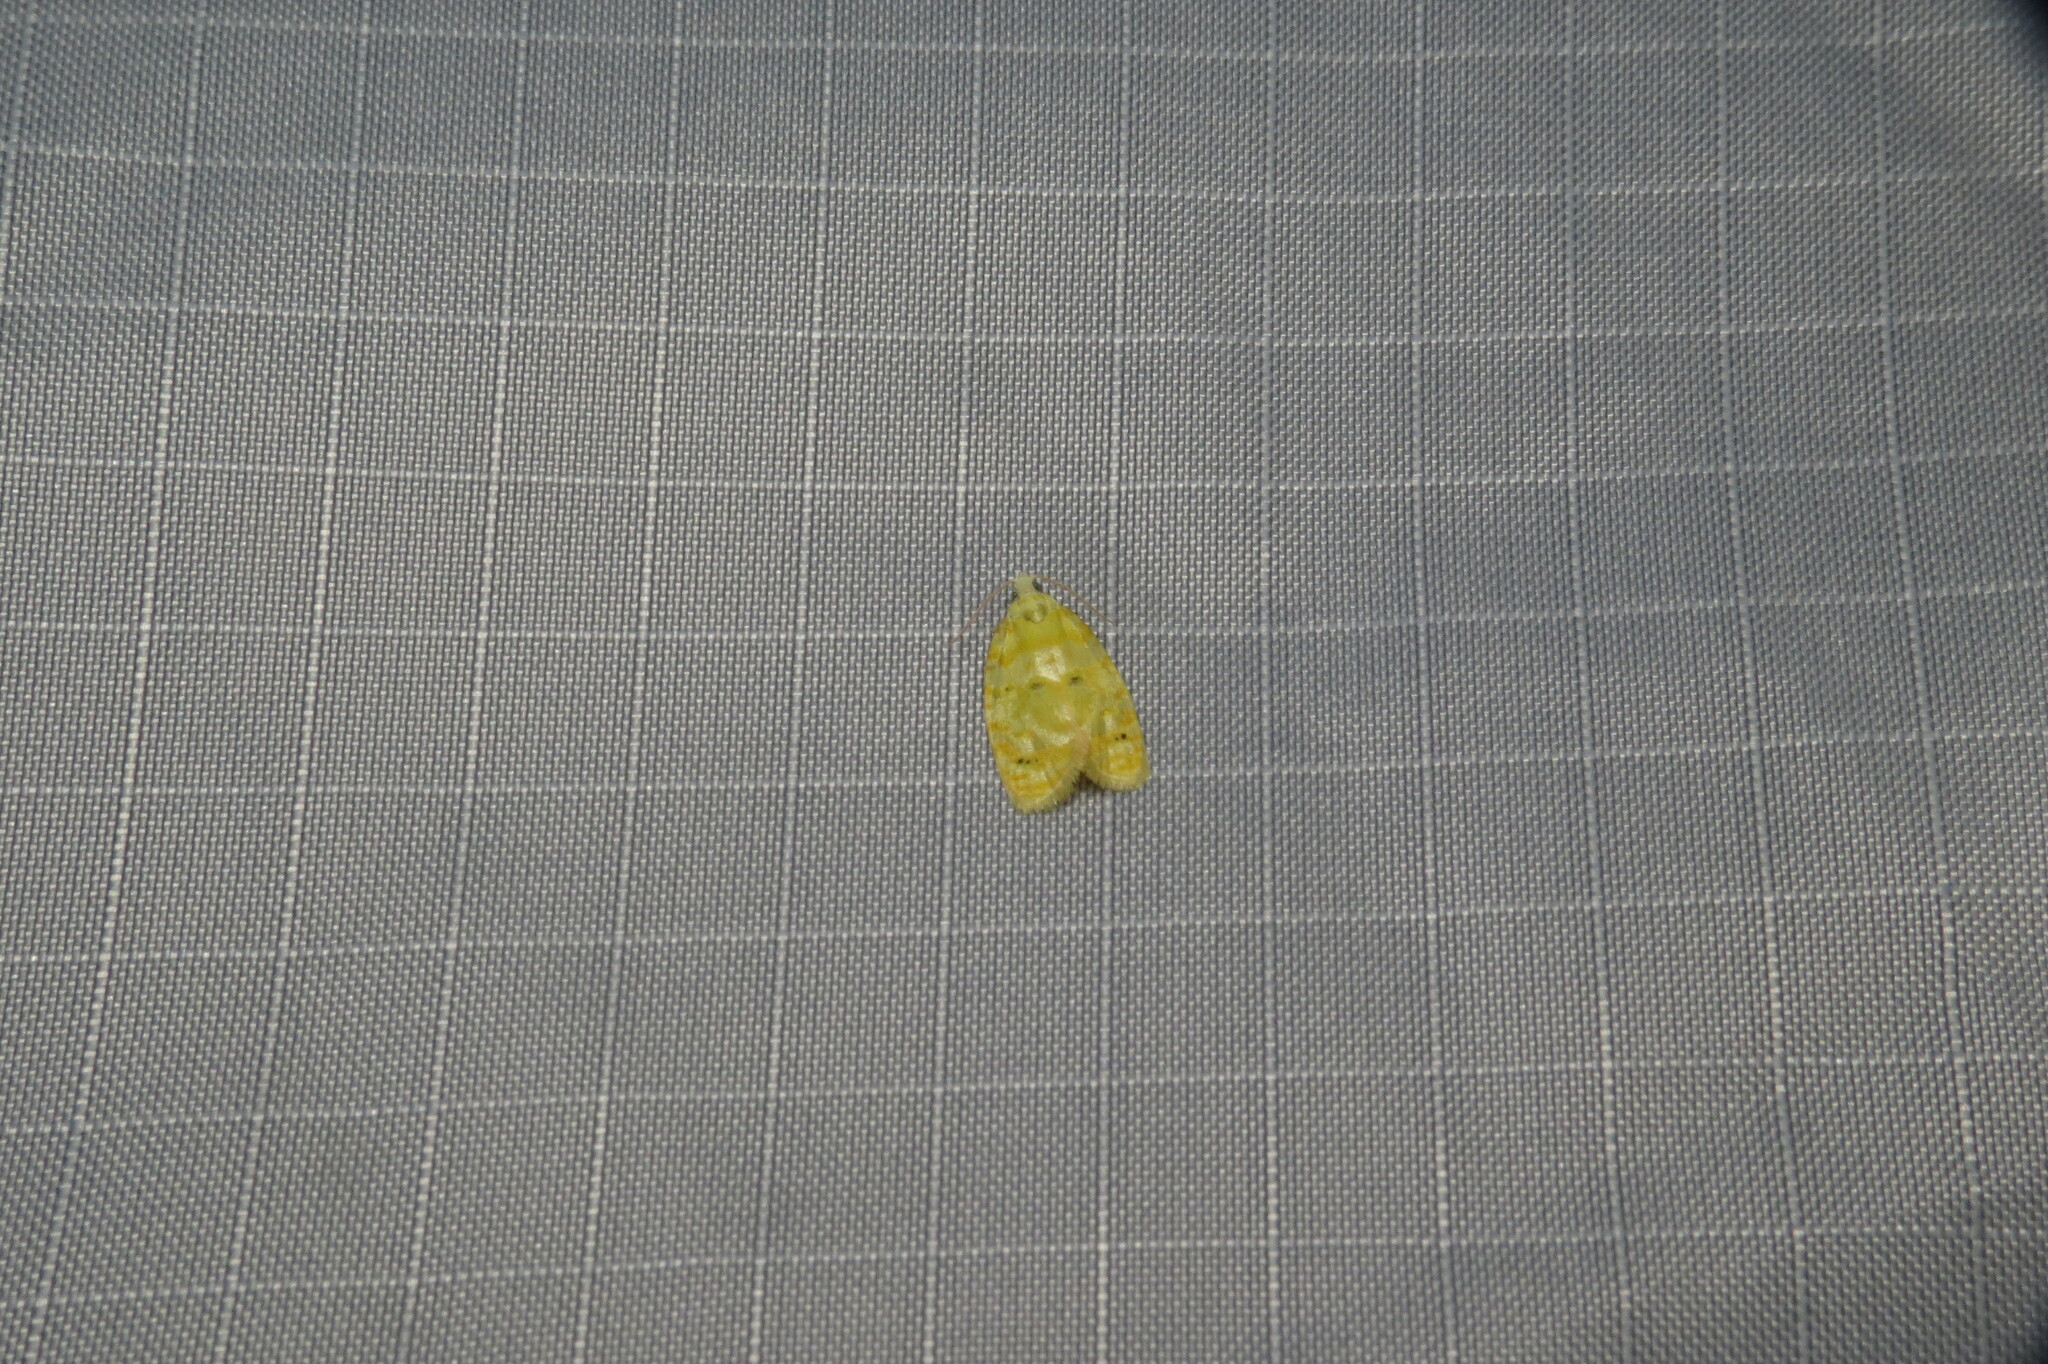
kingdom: Animalia
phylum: Arthropoda
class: Insecta
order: Lepidoptera
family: Tortricidae
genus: Acleris
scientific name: Acleris semipurpurana
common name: Oak leaftier moth
